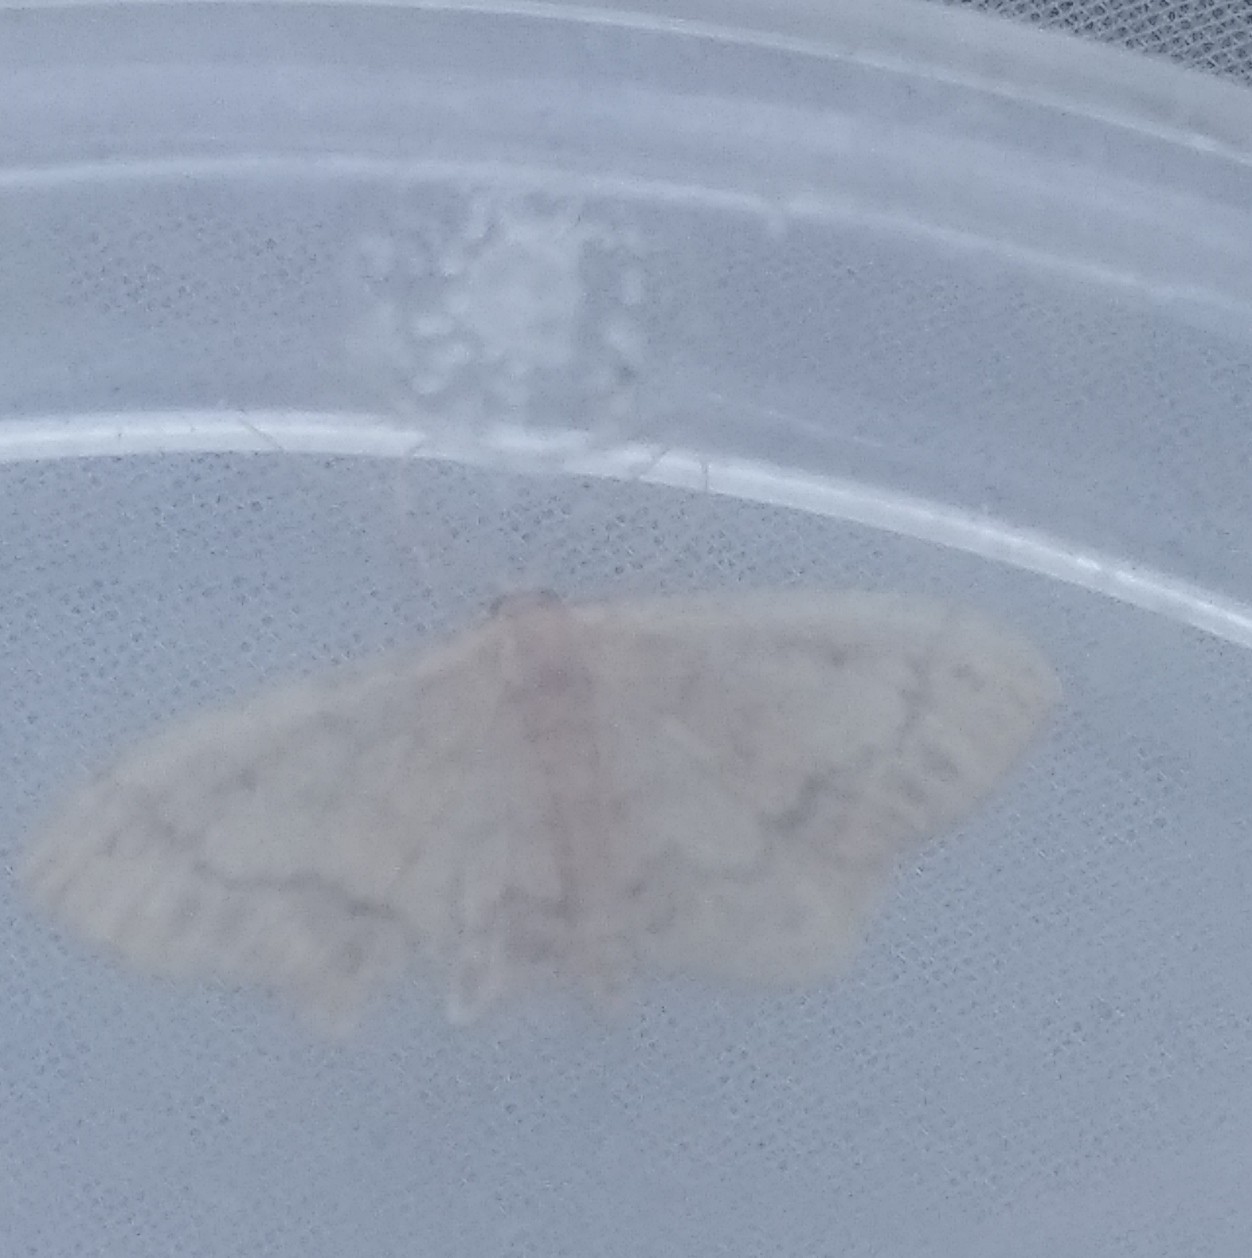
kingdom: Animalia
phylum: Arthropoda
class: Insecta
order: Lepidoptera
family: Geometridae
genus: Idaea
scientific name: Idaea subsaturata
